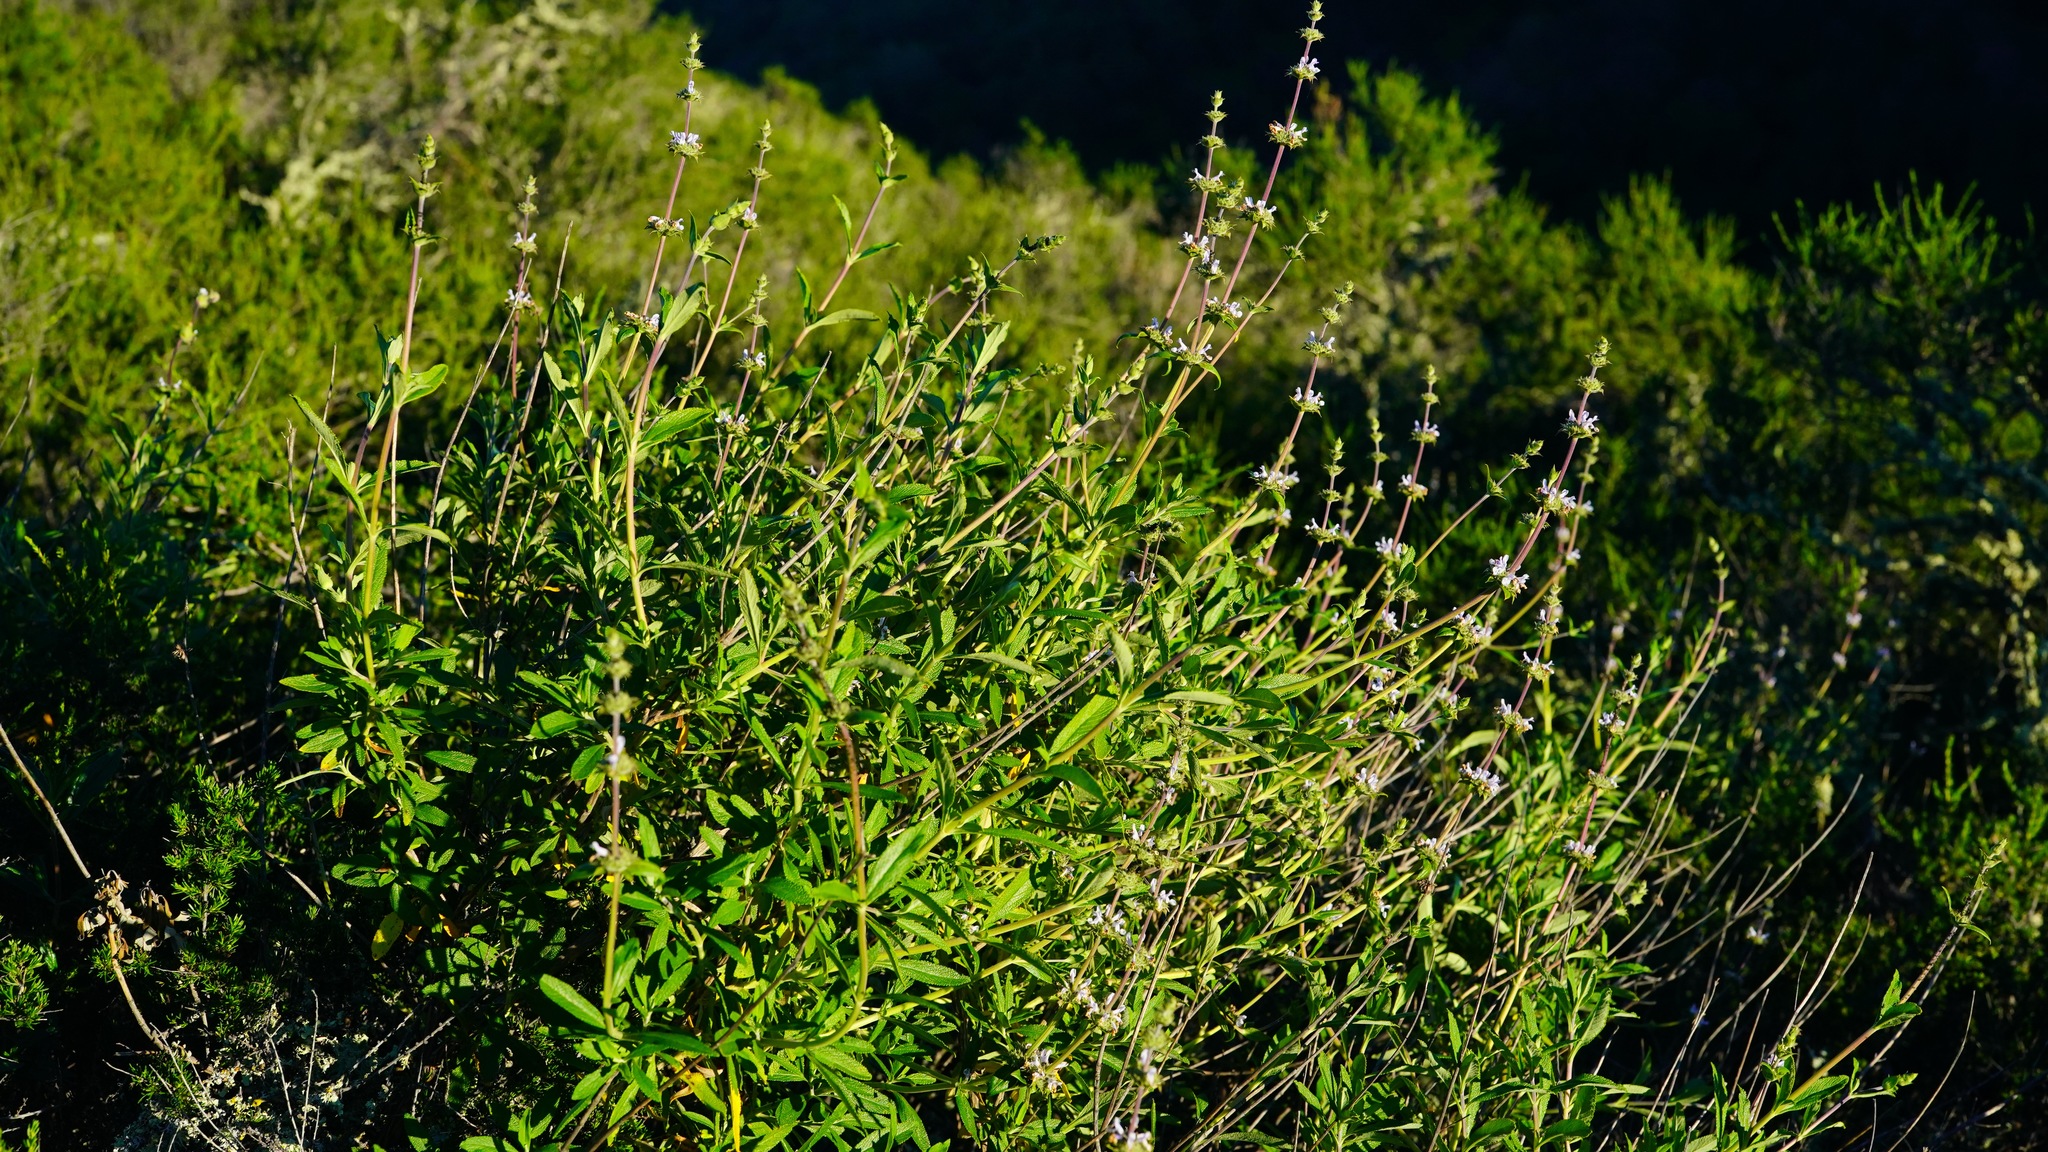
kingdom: Plantae
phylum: Tracheophyta
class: Magnoliopsida
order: Lamiales
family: Lamiaceae
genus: Salvia
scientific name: Salvia mellifera
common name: Black sage
